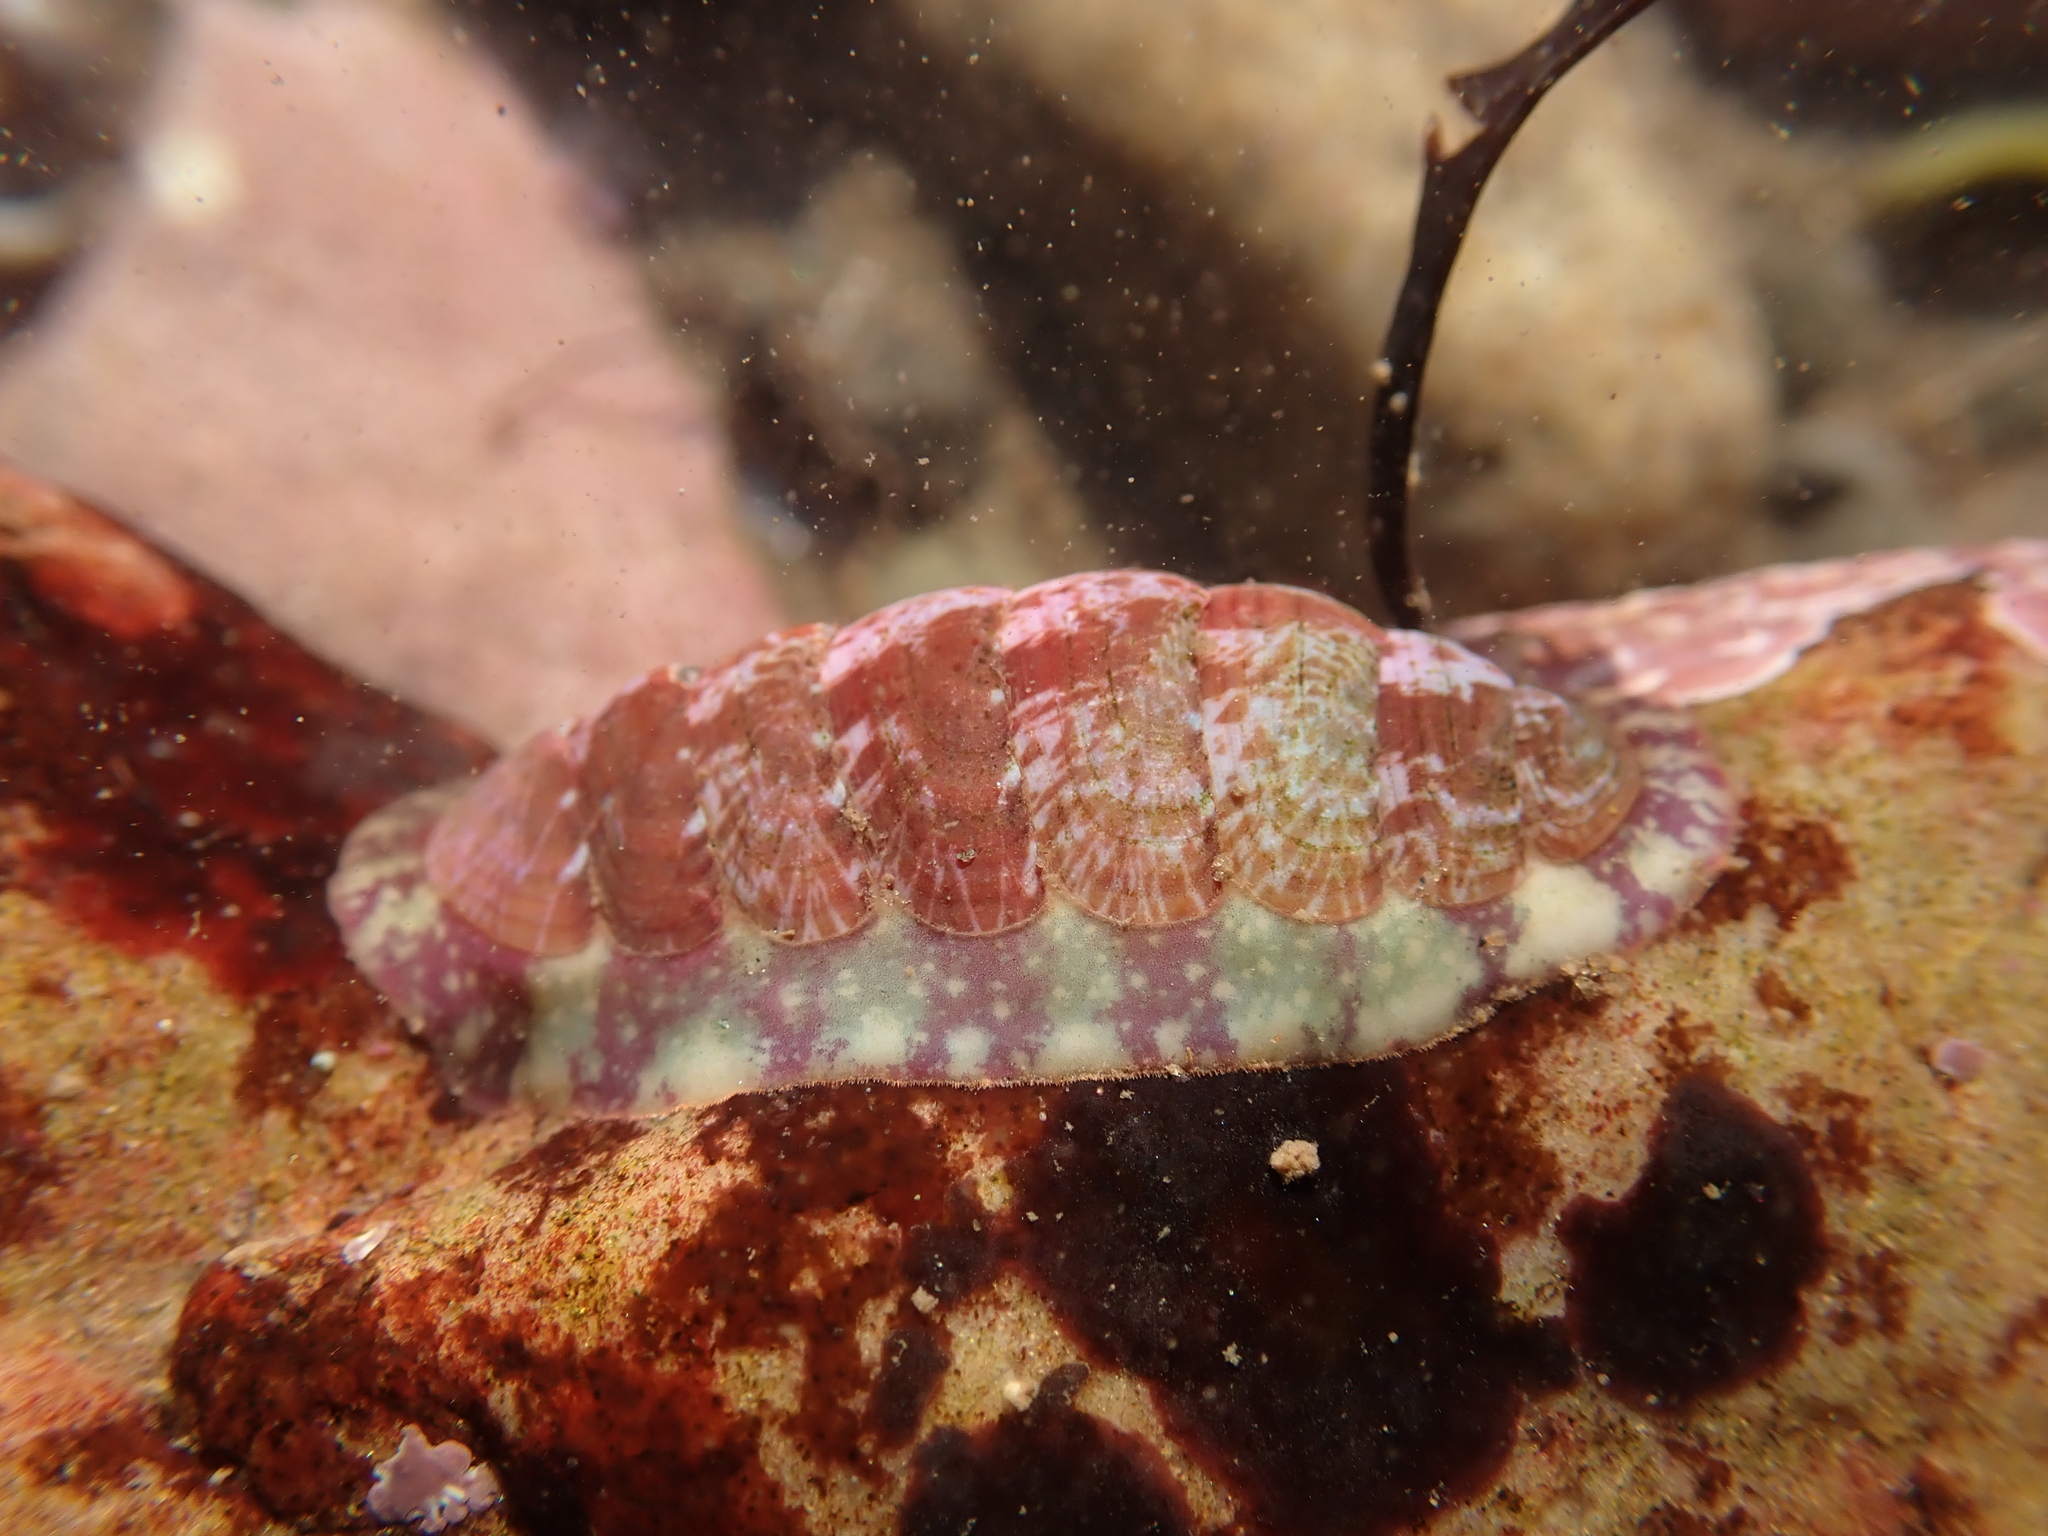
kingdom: Animalia
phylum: Mollusca
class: Polyplacophora
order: Chitonida
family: Tonicellidae
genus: Tonicella
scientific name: Tonicella marmorea
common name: Lined red chiton
